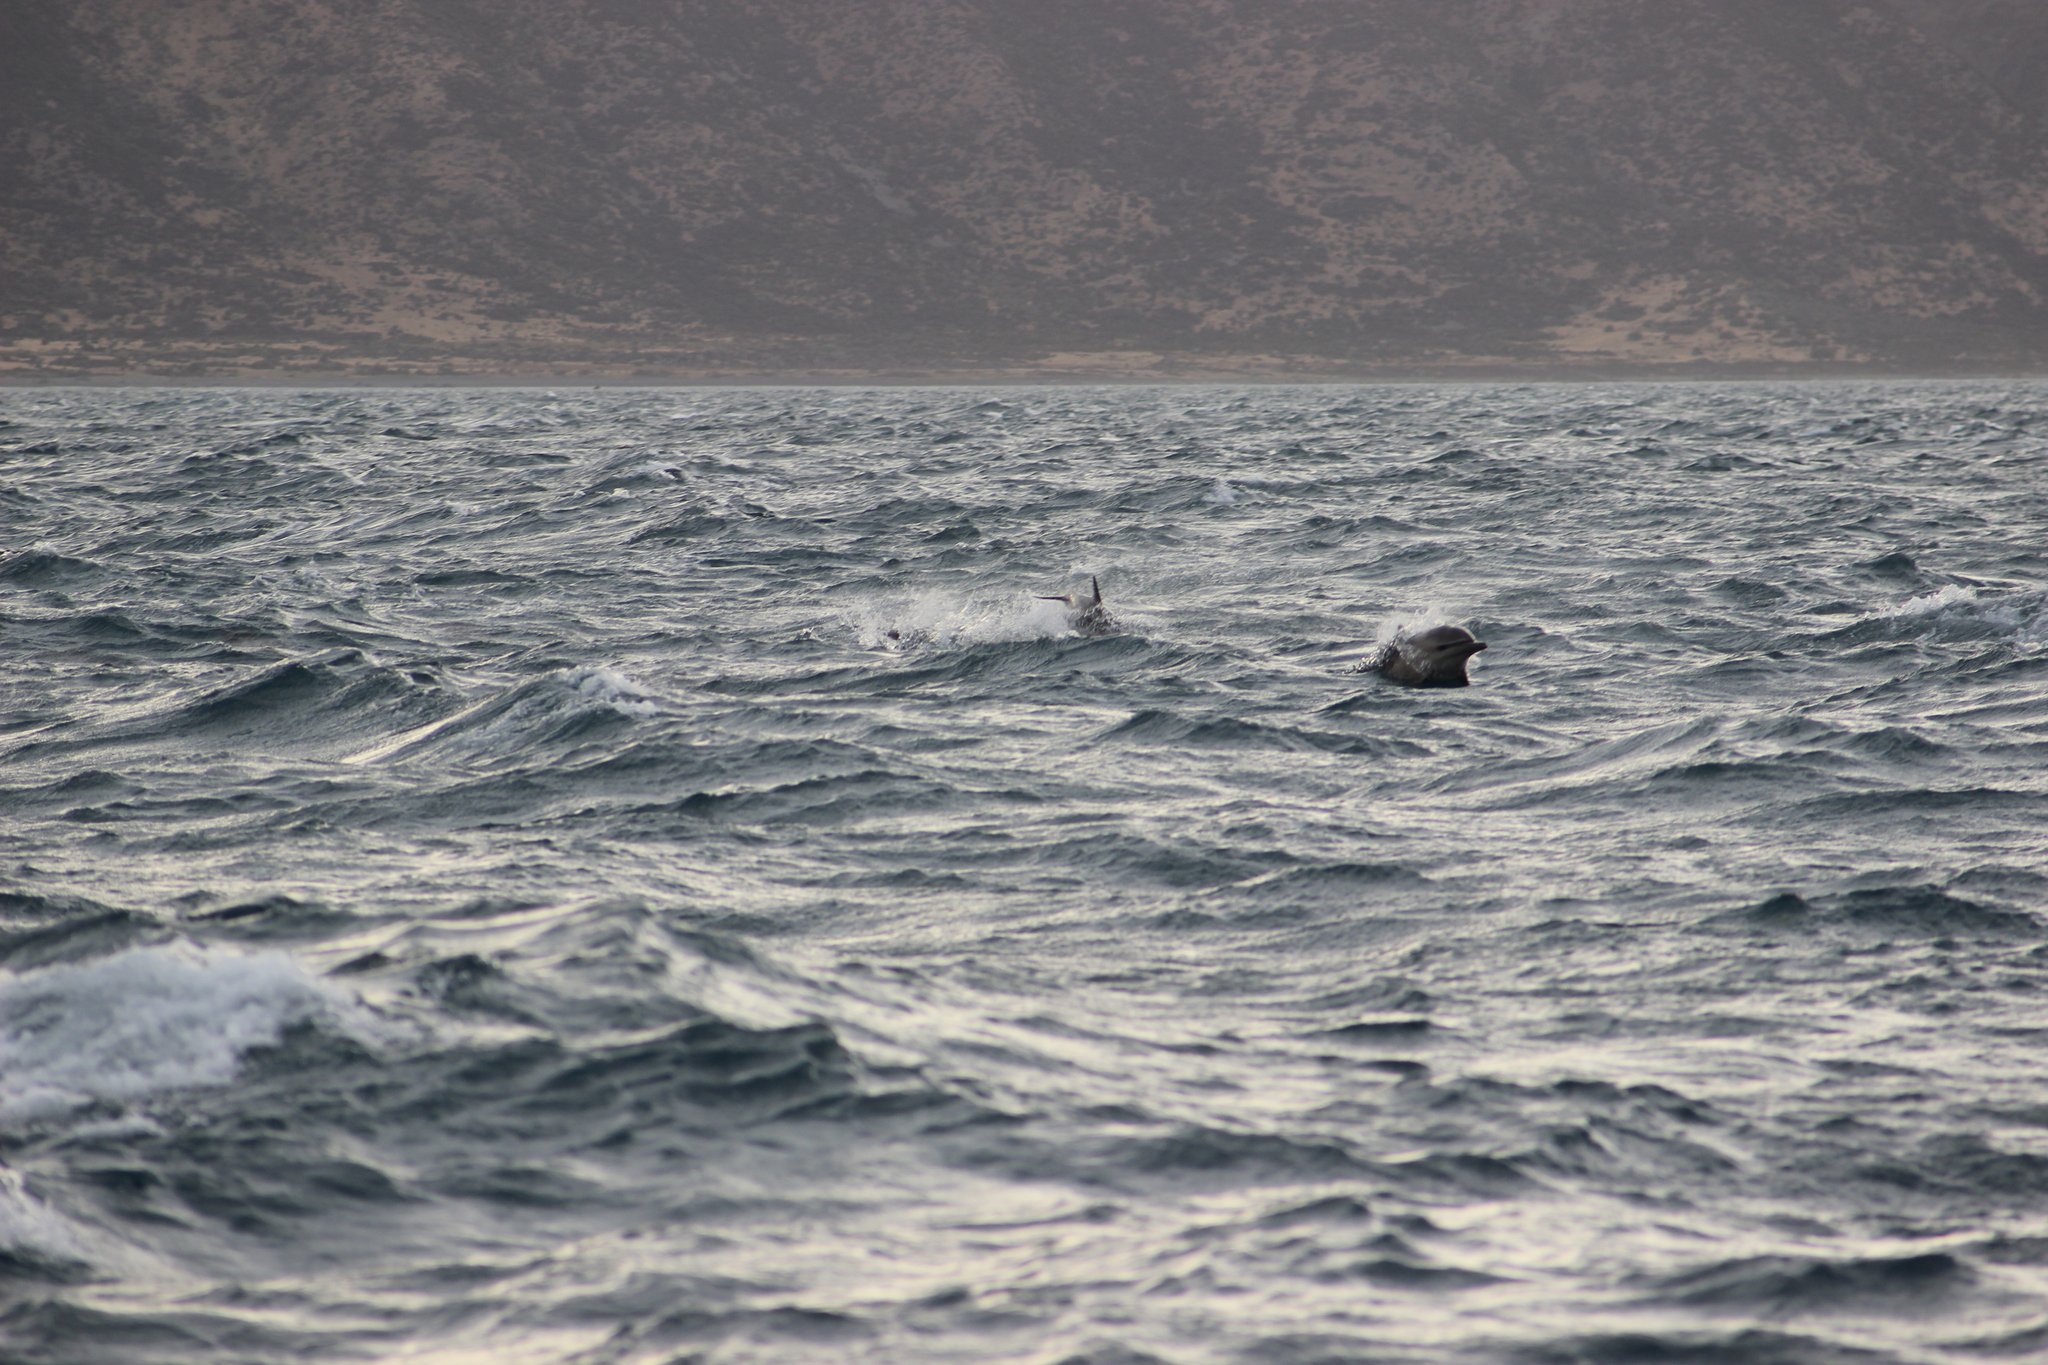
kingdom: Animalia
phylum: Chordata
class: Mammalia
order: Cetacea
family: Delphinidae
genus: Delphinus
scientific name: Delphinus delphis
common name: Common dolphin
